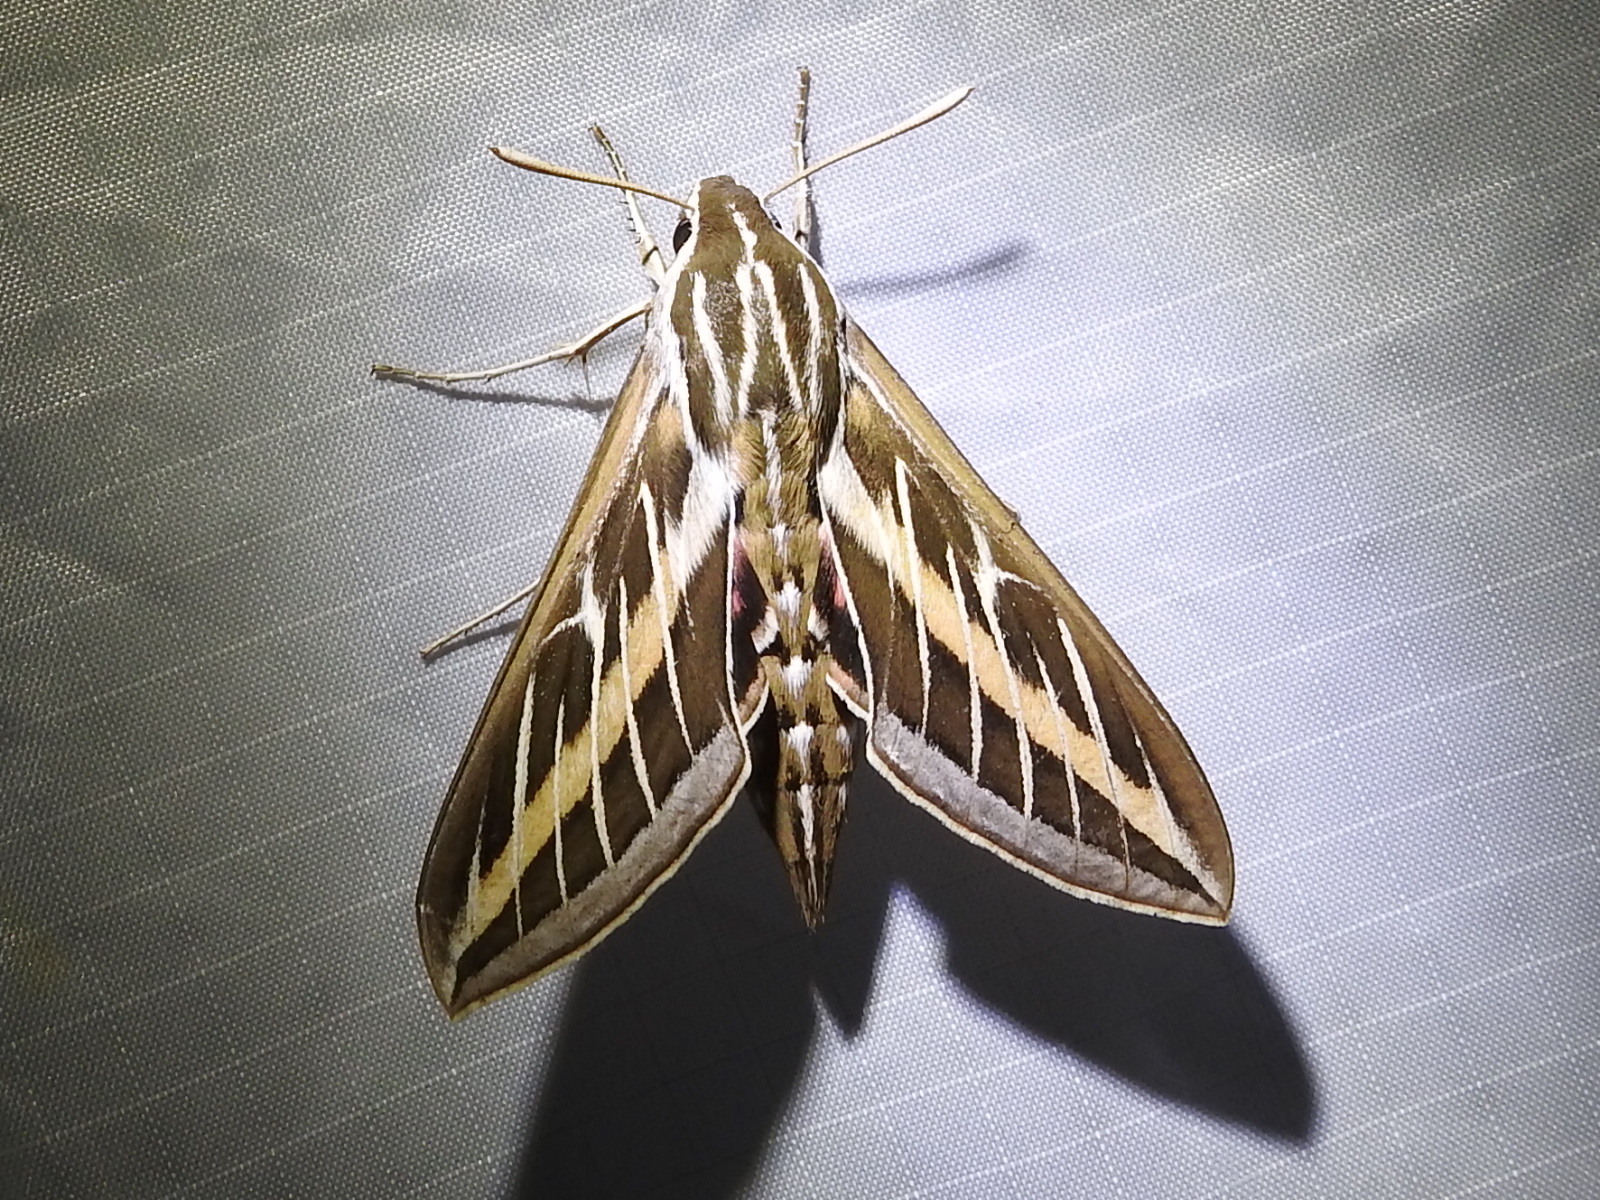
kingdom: Animalia
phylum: Arthropoda
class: Insecta
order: Lepidoptera
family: Sphingidae
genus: Hyles
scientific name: Hyles lineata
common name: White-lined sphinx
